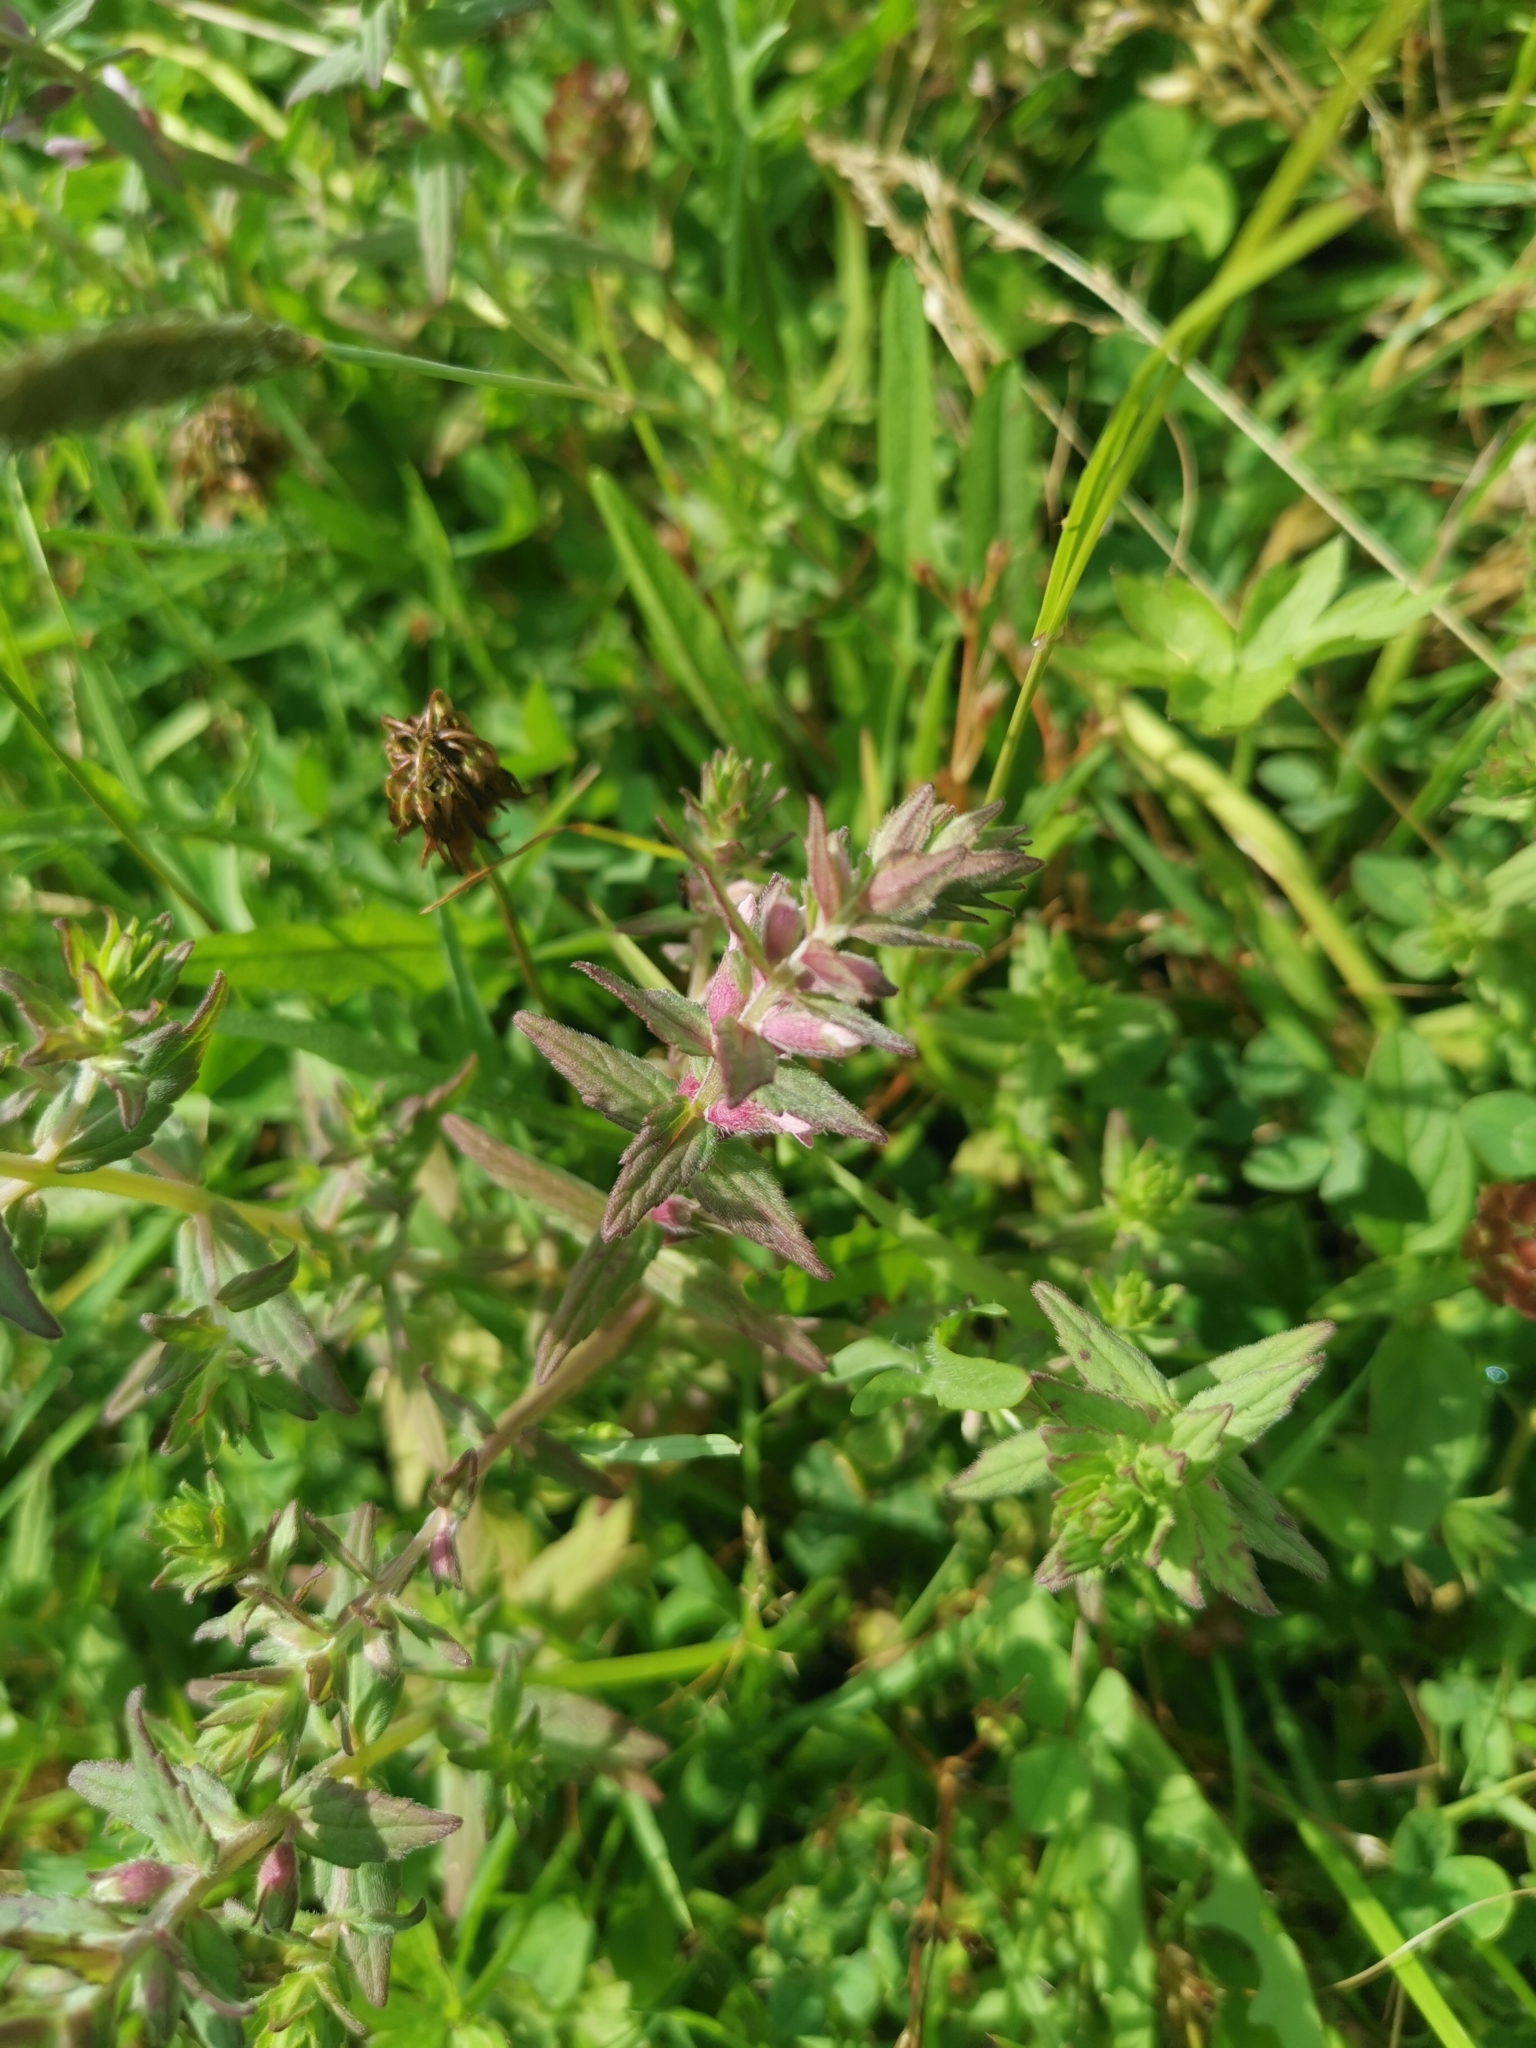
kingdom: Plantae
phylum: Tracheophyta
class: Magnoliopsida
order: Lamiales
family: Orobanchaceae
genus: Odontites
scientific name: Odontites vernus
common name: Red bartsia
